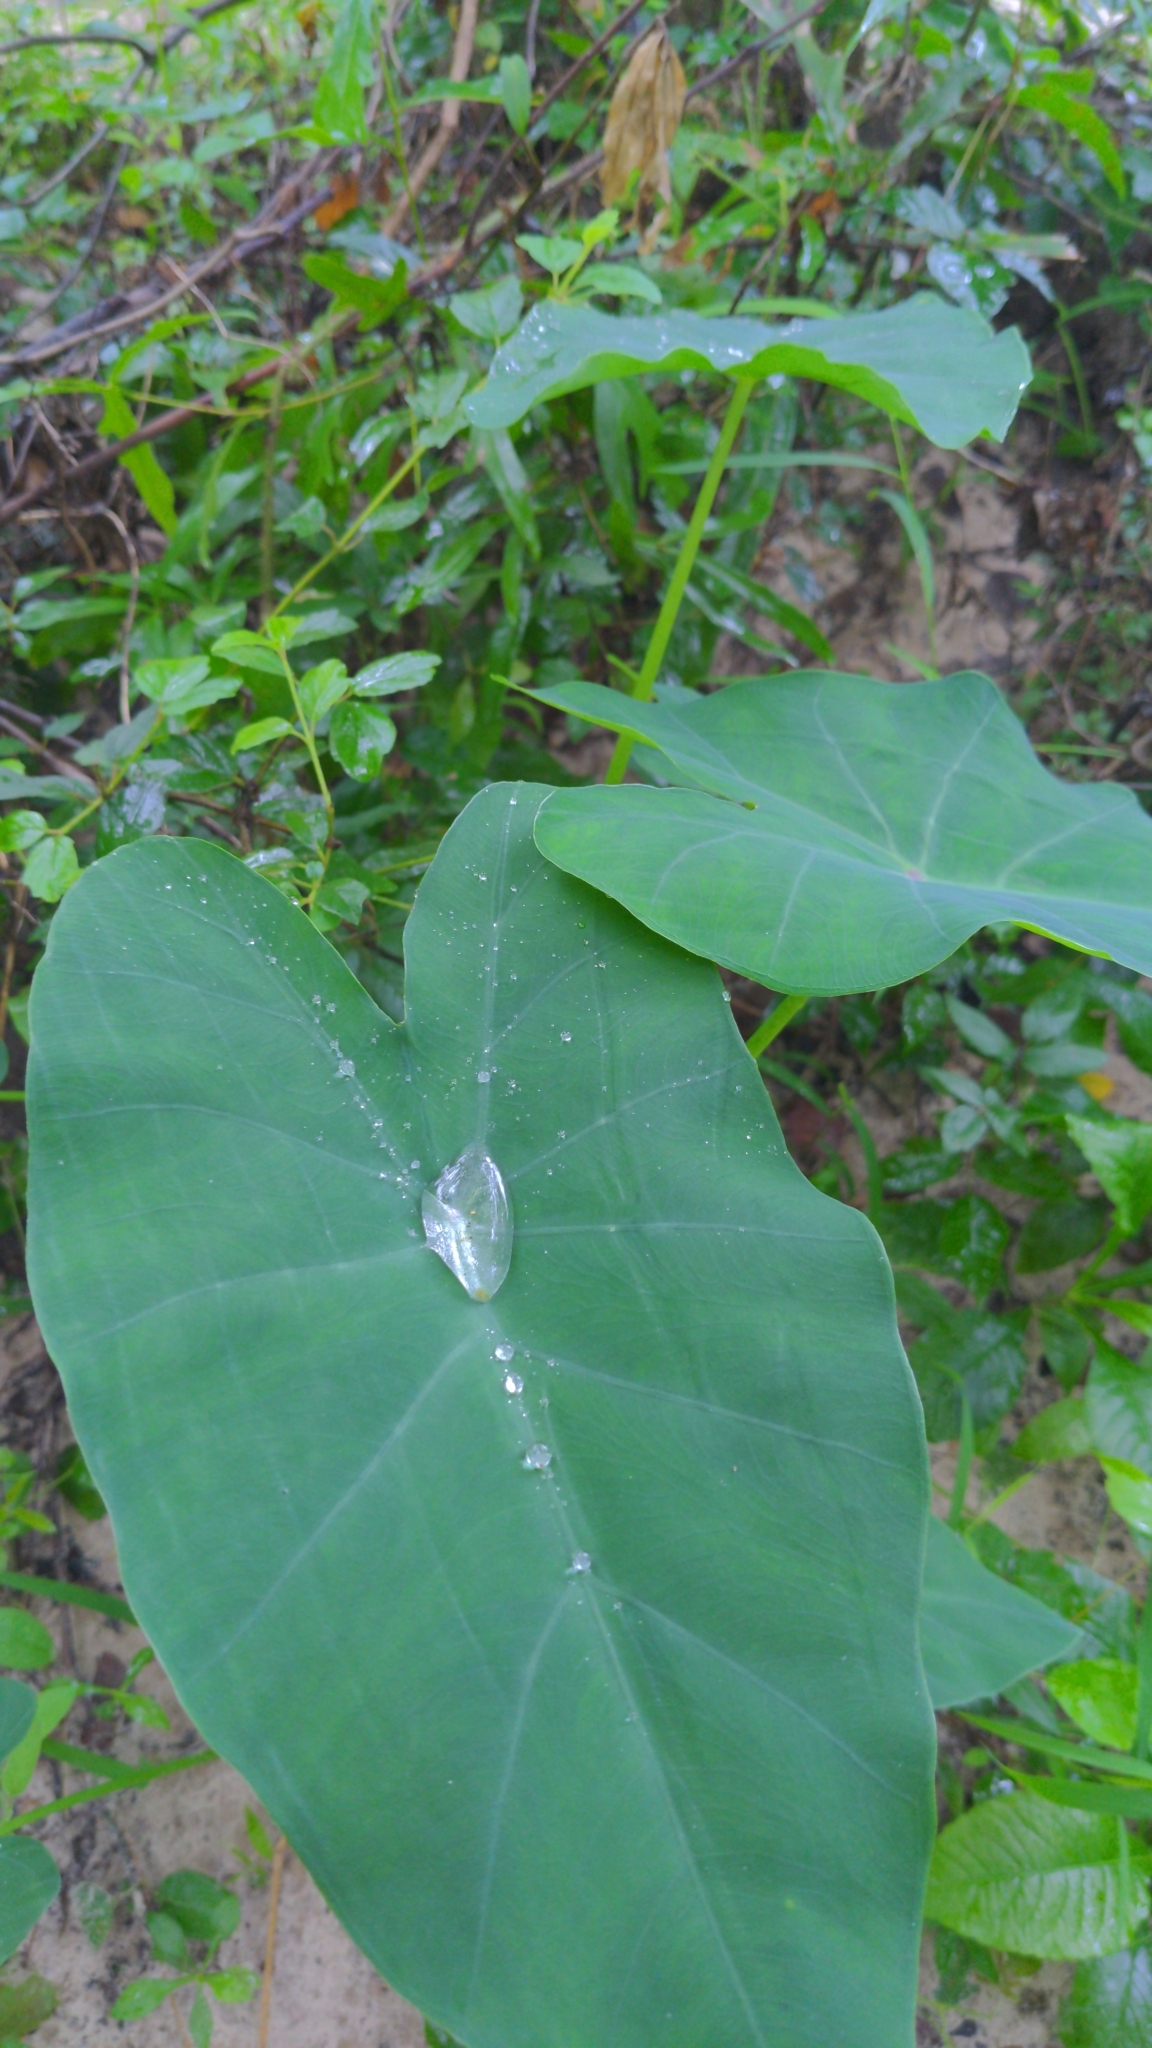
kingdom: Plantae
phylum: Tracheophyta
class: Liliopsida
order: Alismatales
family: Araceae
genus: Colocasia
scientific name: Colocasia esculenta
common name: Taro
